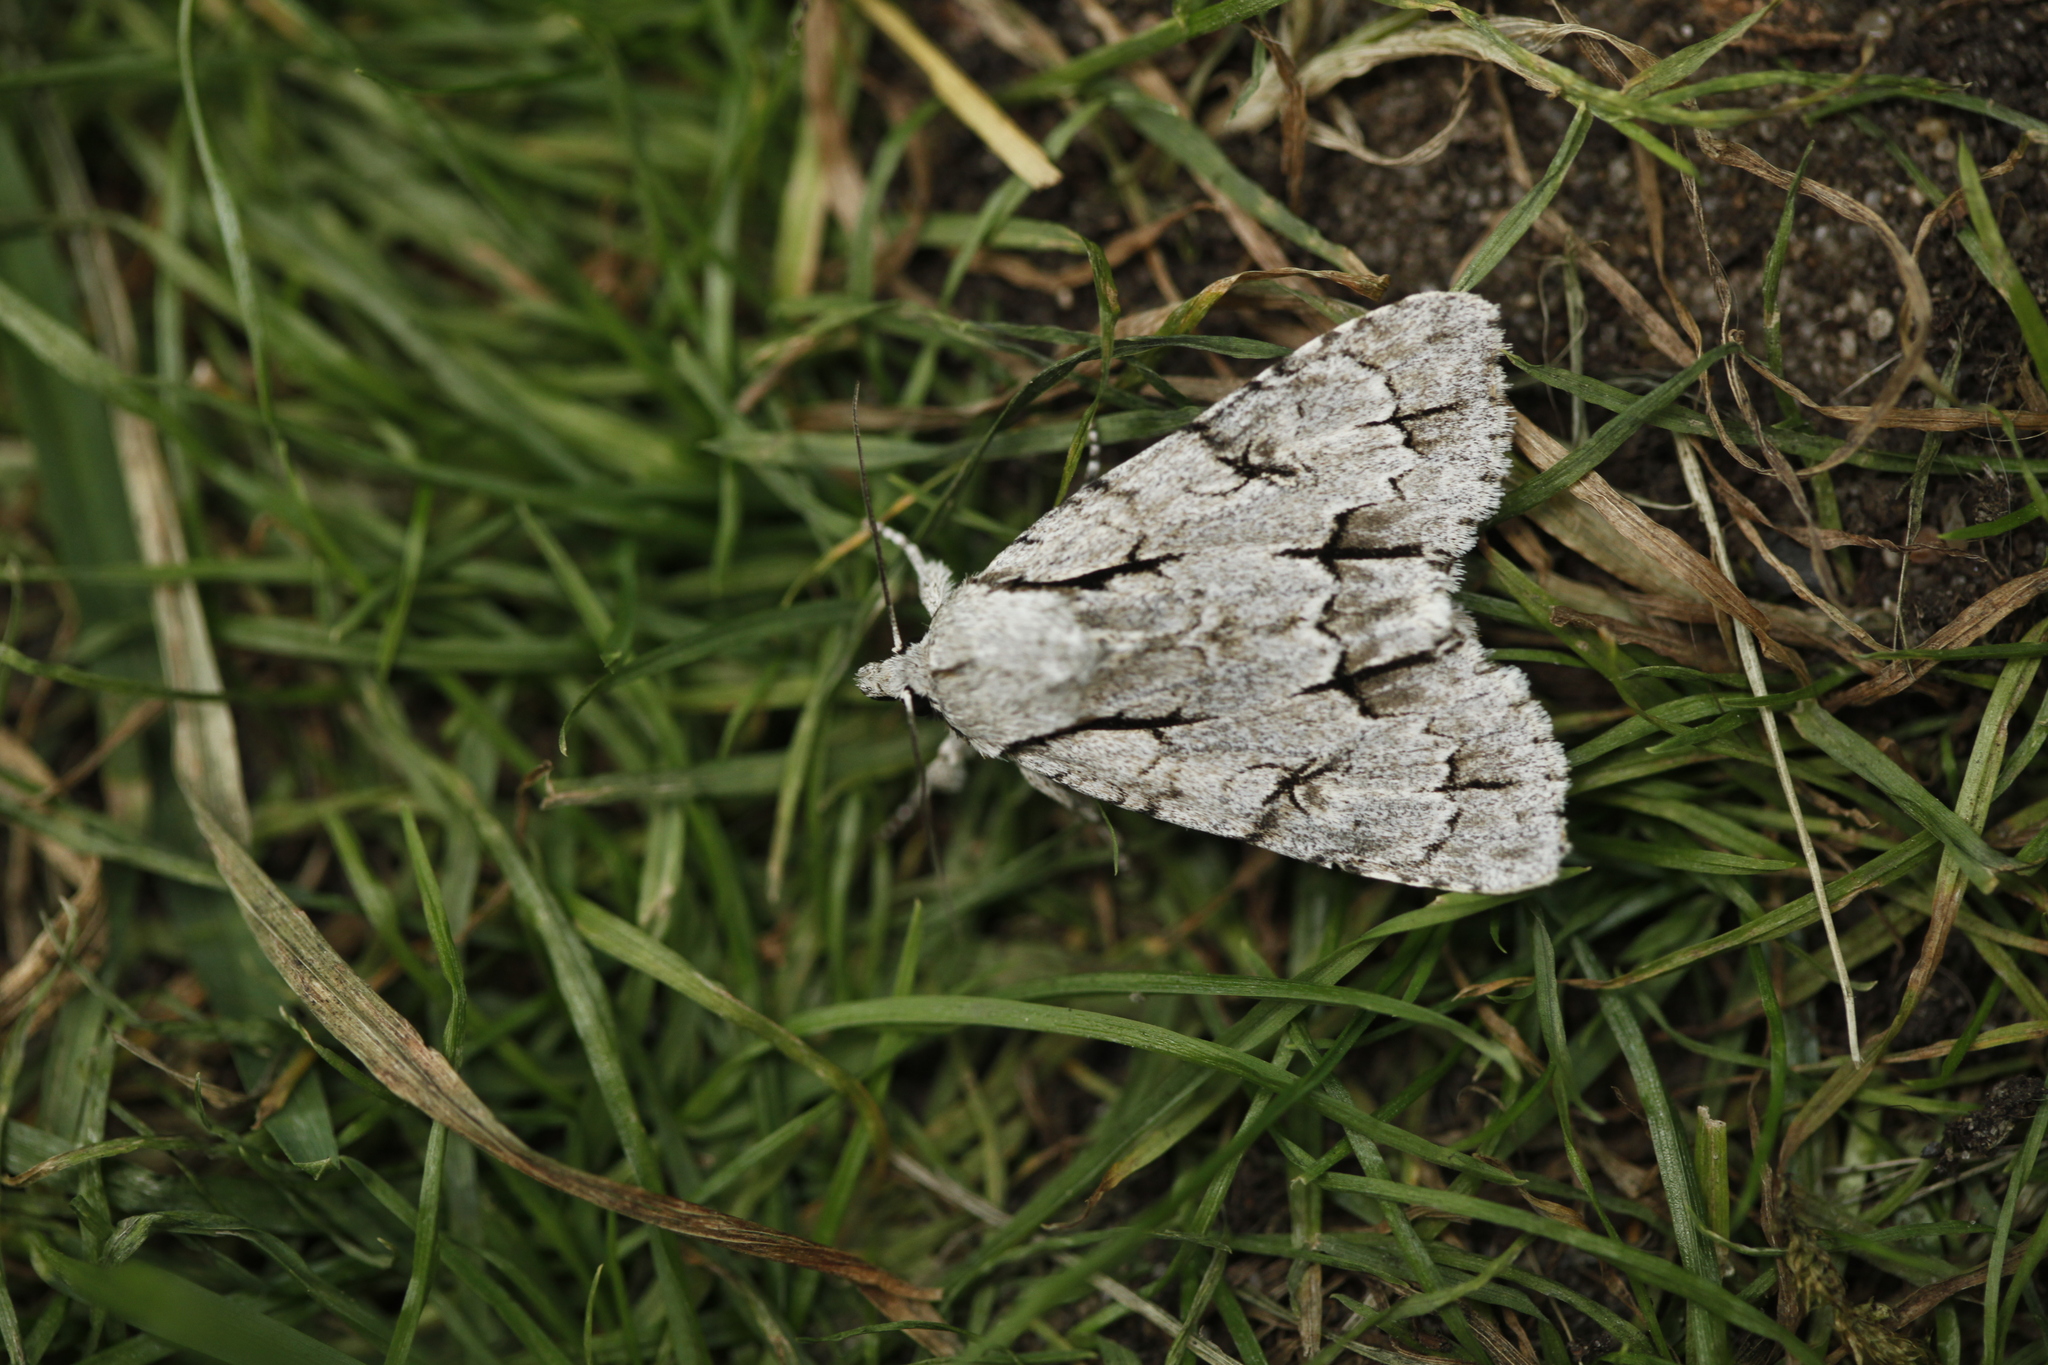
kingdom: Animalia
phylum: Arthropoda
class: Insecta
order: Lepidoptera
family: Noctuidae
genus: Acronicta
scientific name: Acronicta psi
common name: Grey dagger
